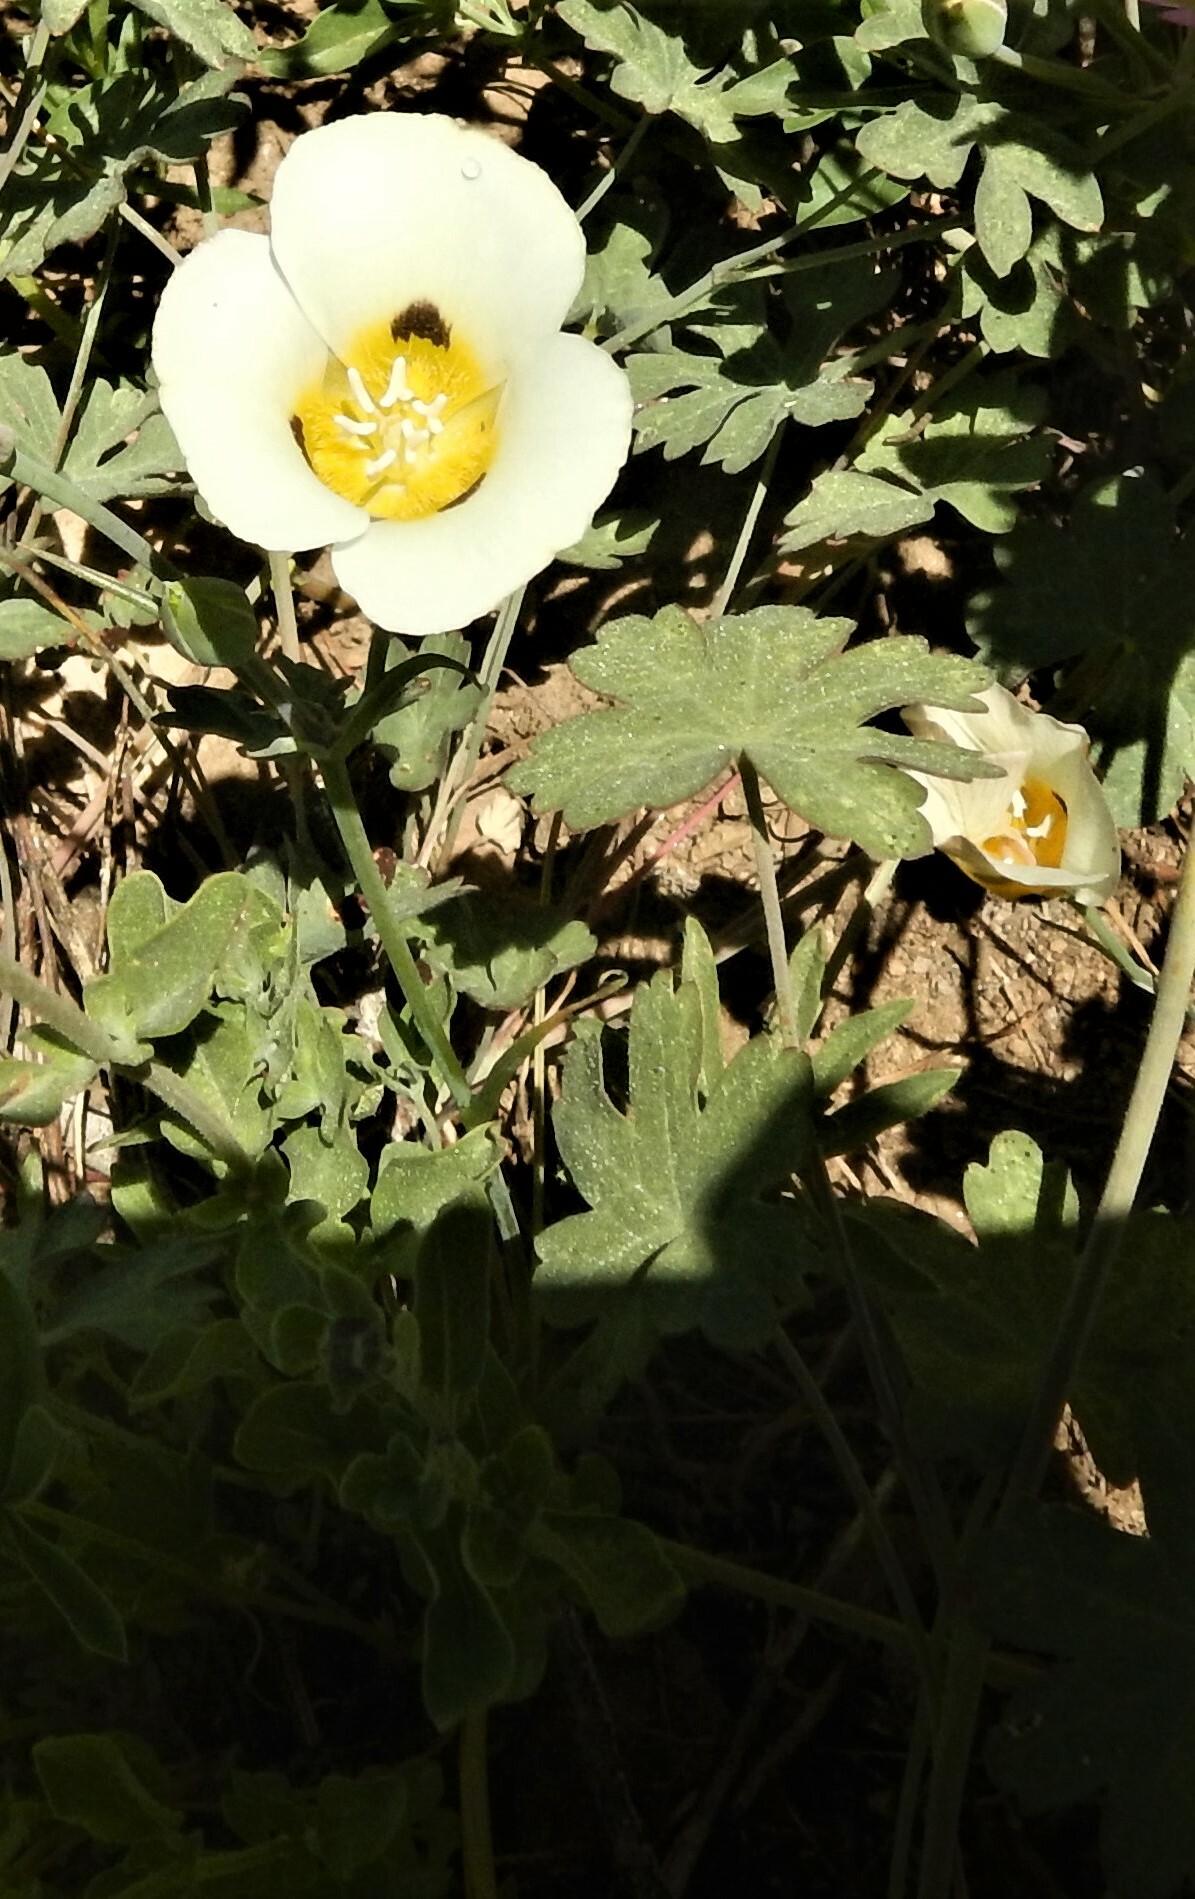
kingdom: Plantae
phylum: Tracheophyta
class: Liliopsida
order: Liliales
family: Liliaceae
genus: Calochortus
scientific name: Calochortus leichtlinii
